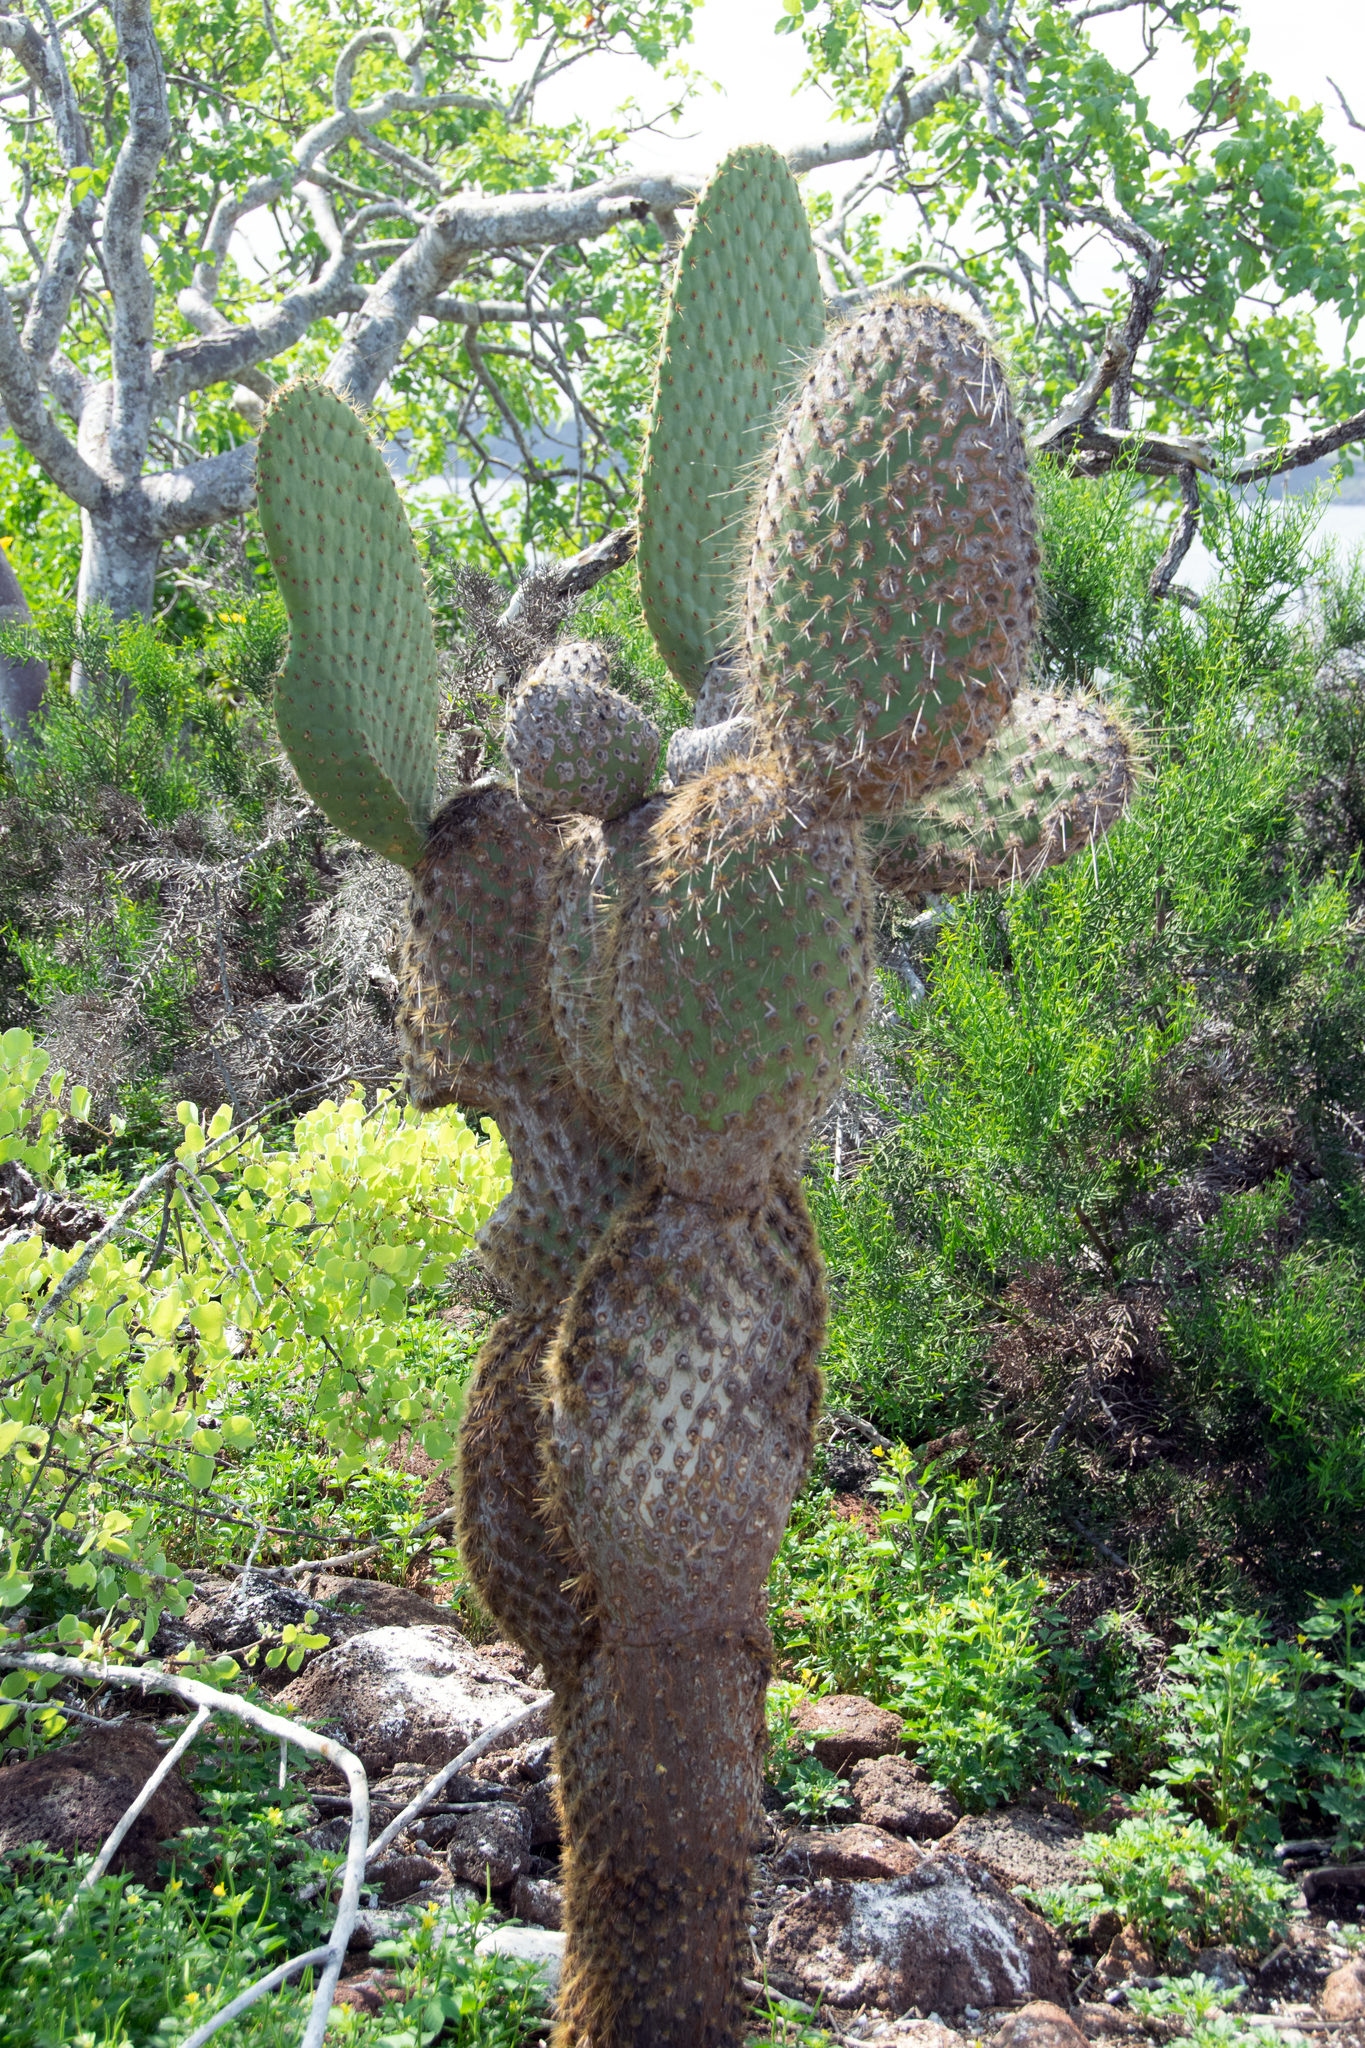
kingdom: Plantae
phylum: Tracheophyta
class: Magnoliopsida
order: Caryophyllales
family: Cactaceae
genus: Opuntia
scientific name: Opuntia galapageia
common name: Galápagos prickly pear
